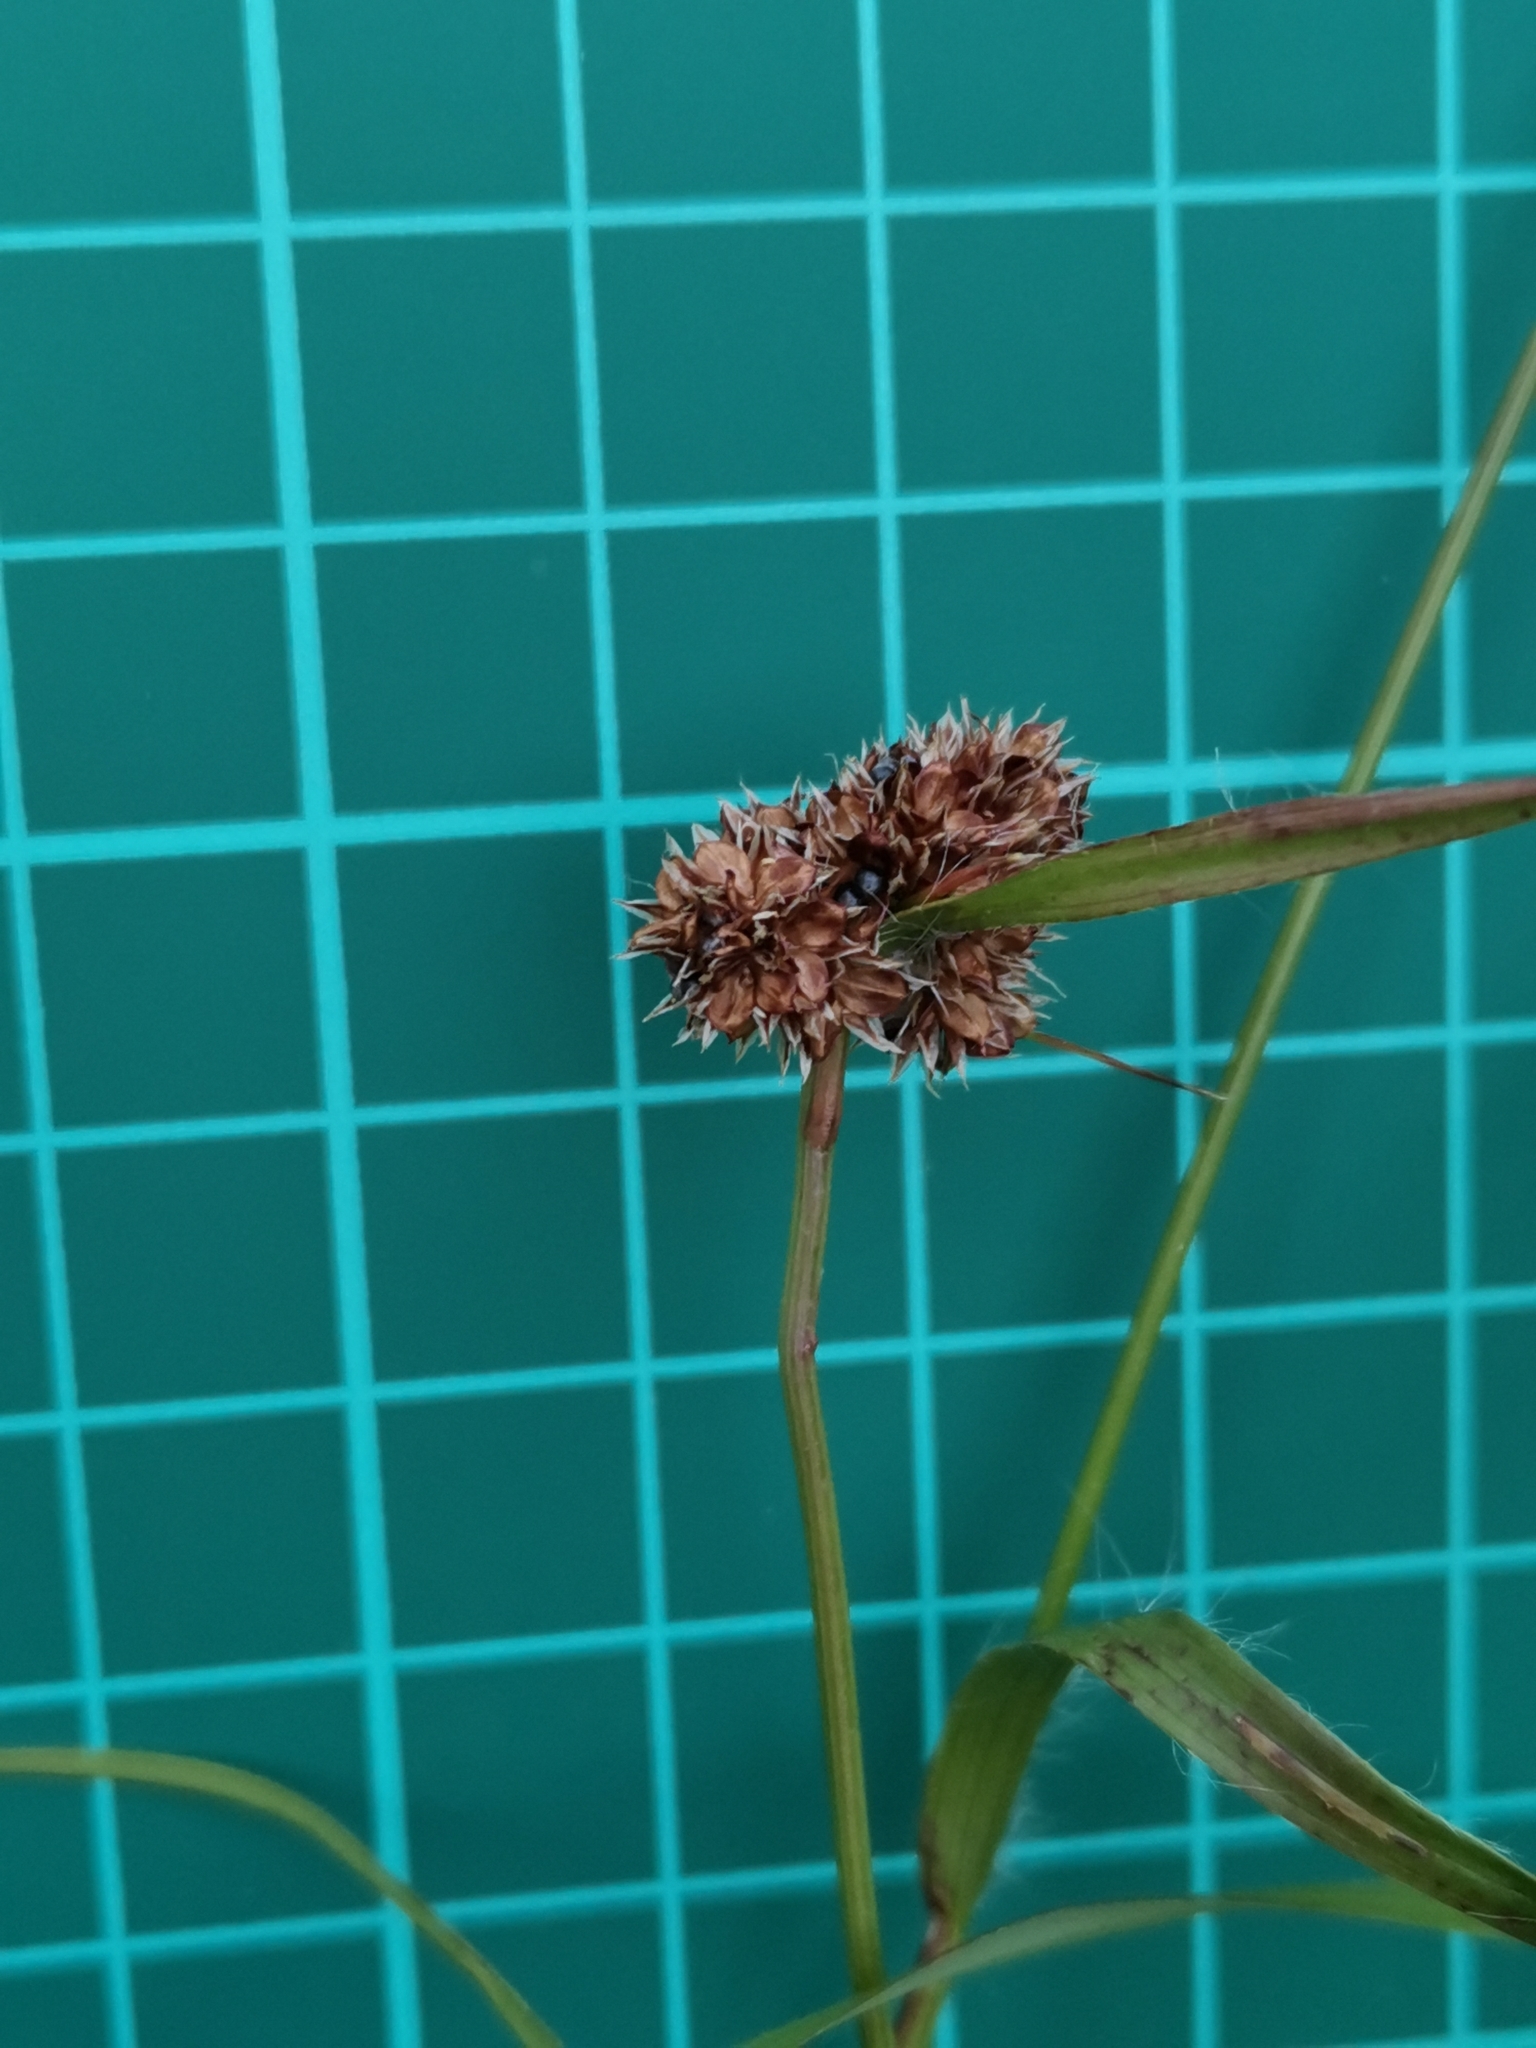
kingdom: Plantae
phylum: Tracheophyta
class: Liliopsida
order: Poales
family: Juncaceae
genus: Luzula
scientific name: Luzula capitata
